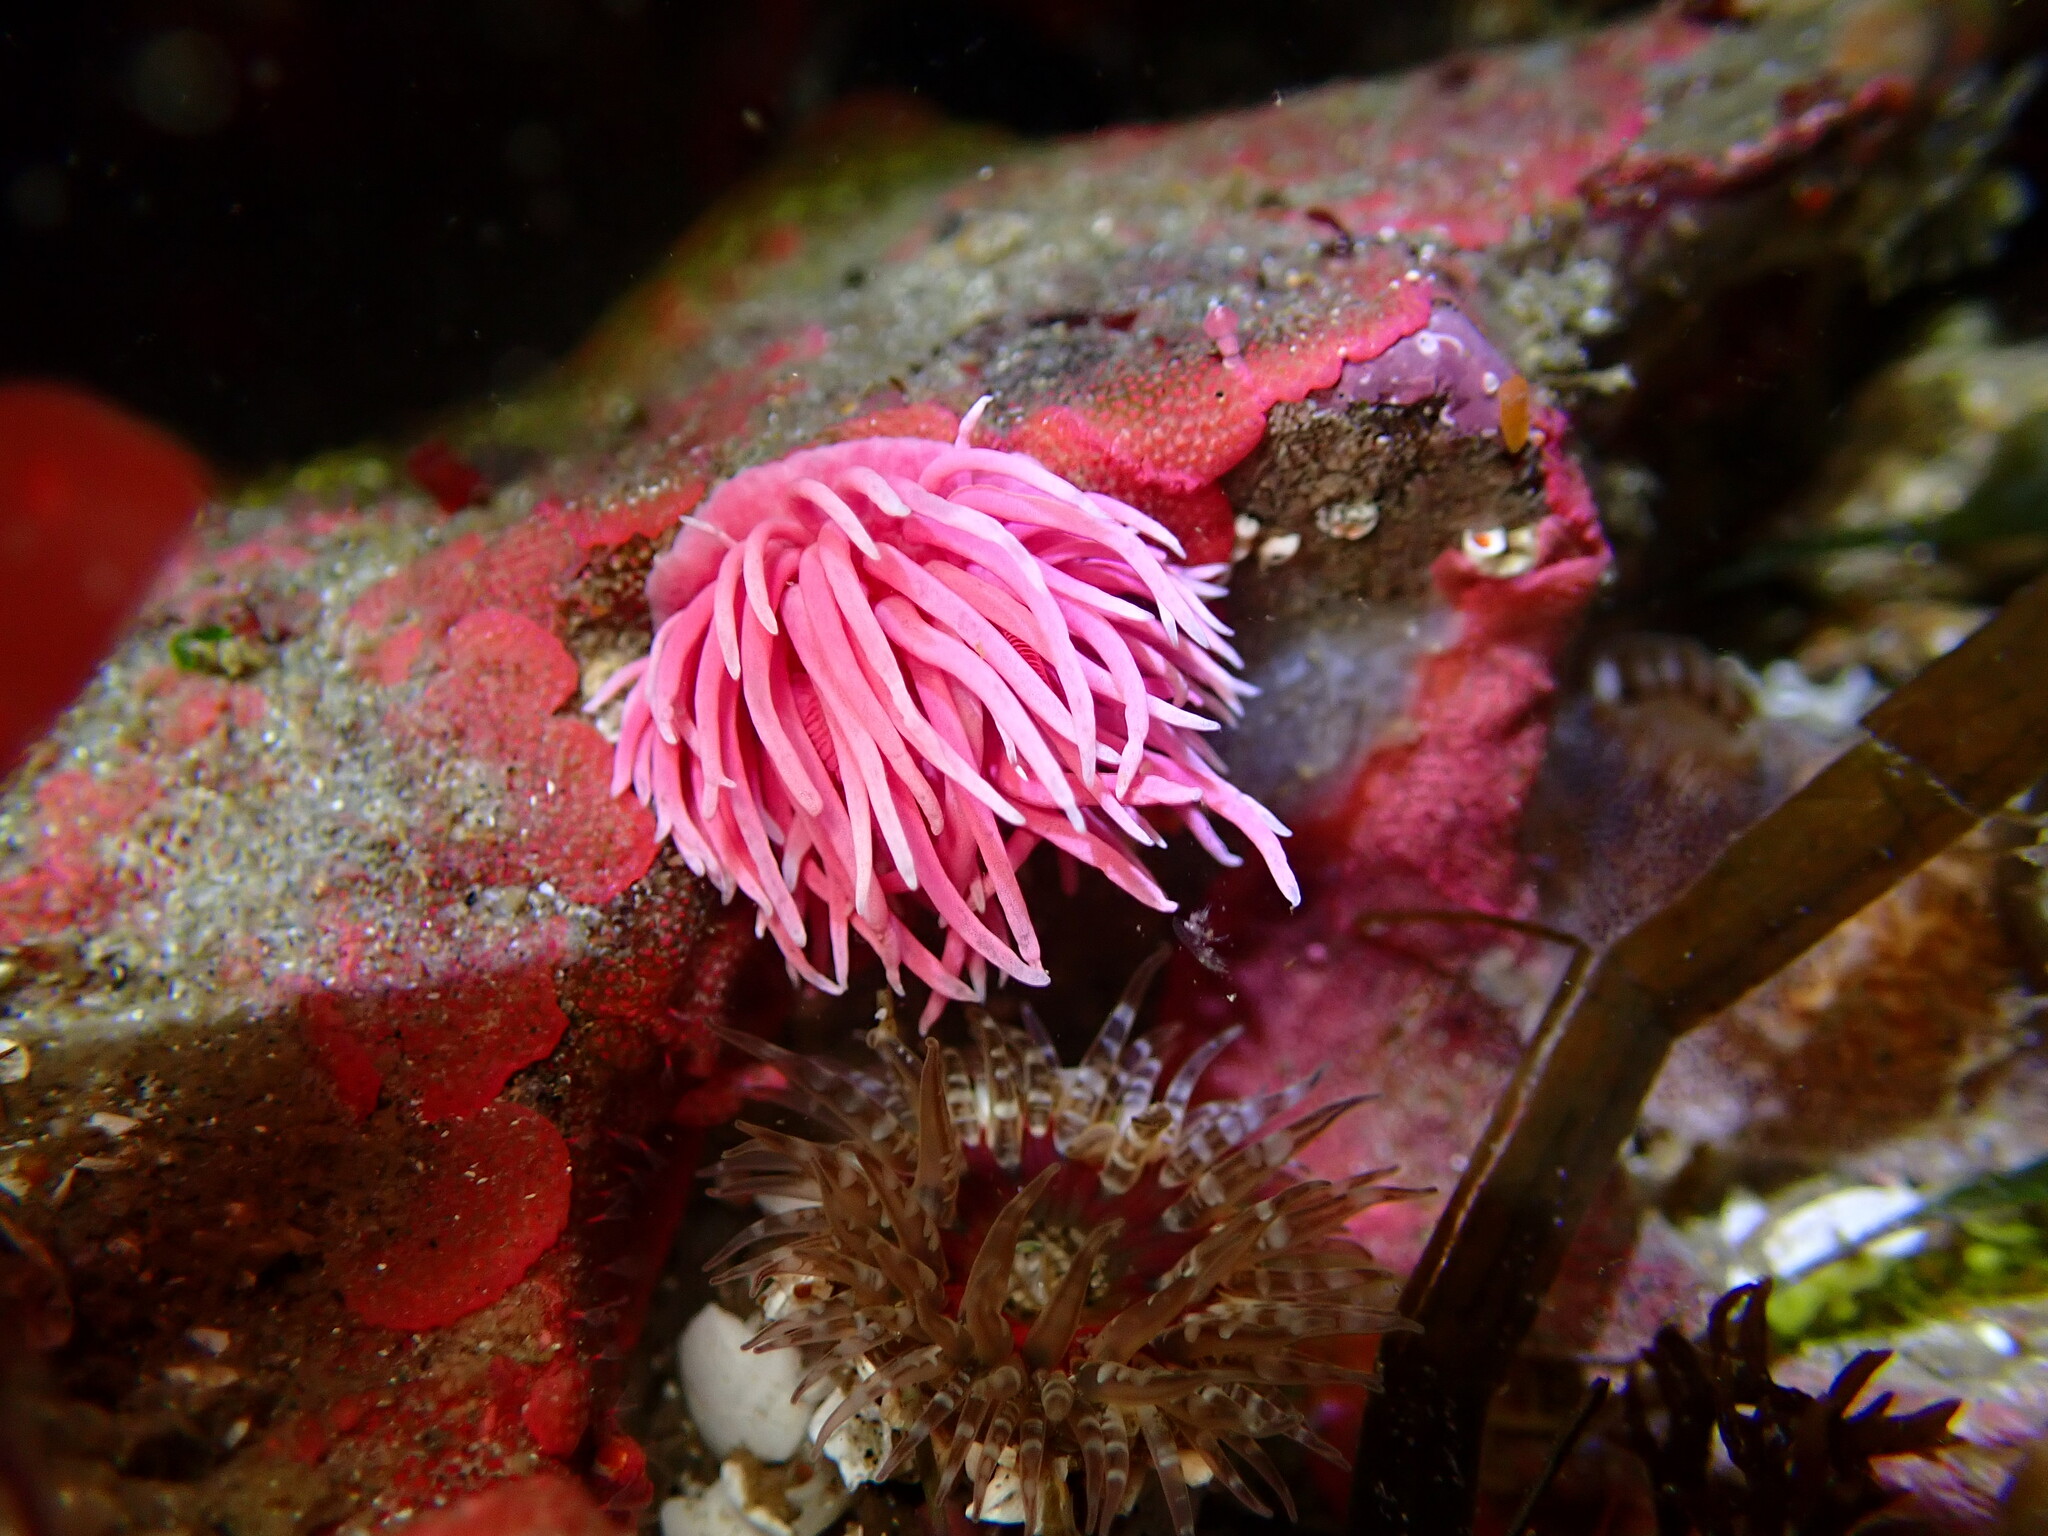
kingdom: Animalia
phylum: Mollusca
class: Gastropoda
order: Nudibranchia
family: Goniodorididae
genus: Okenia
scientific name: Okenia
